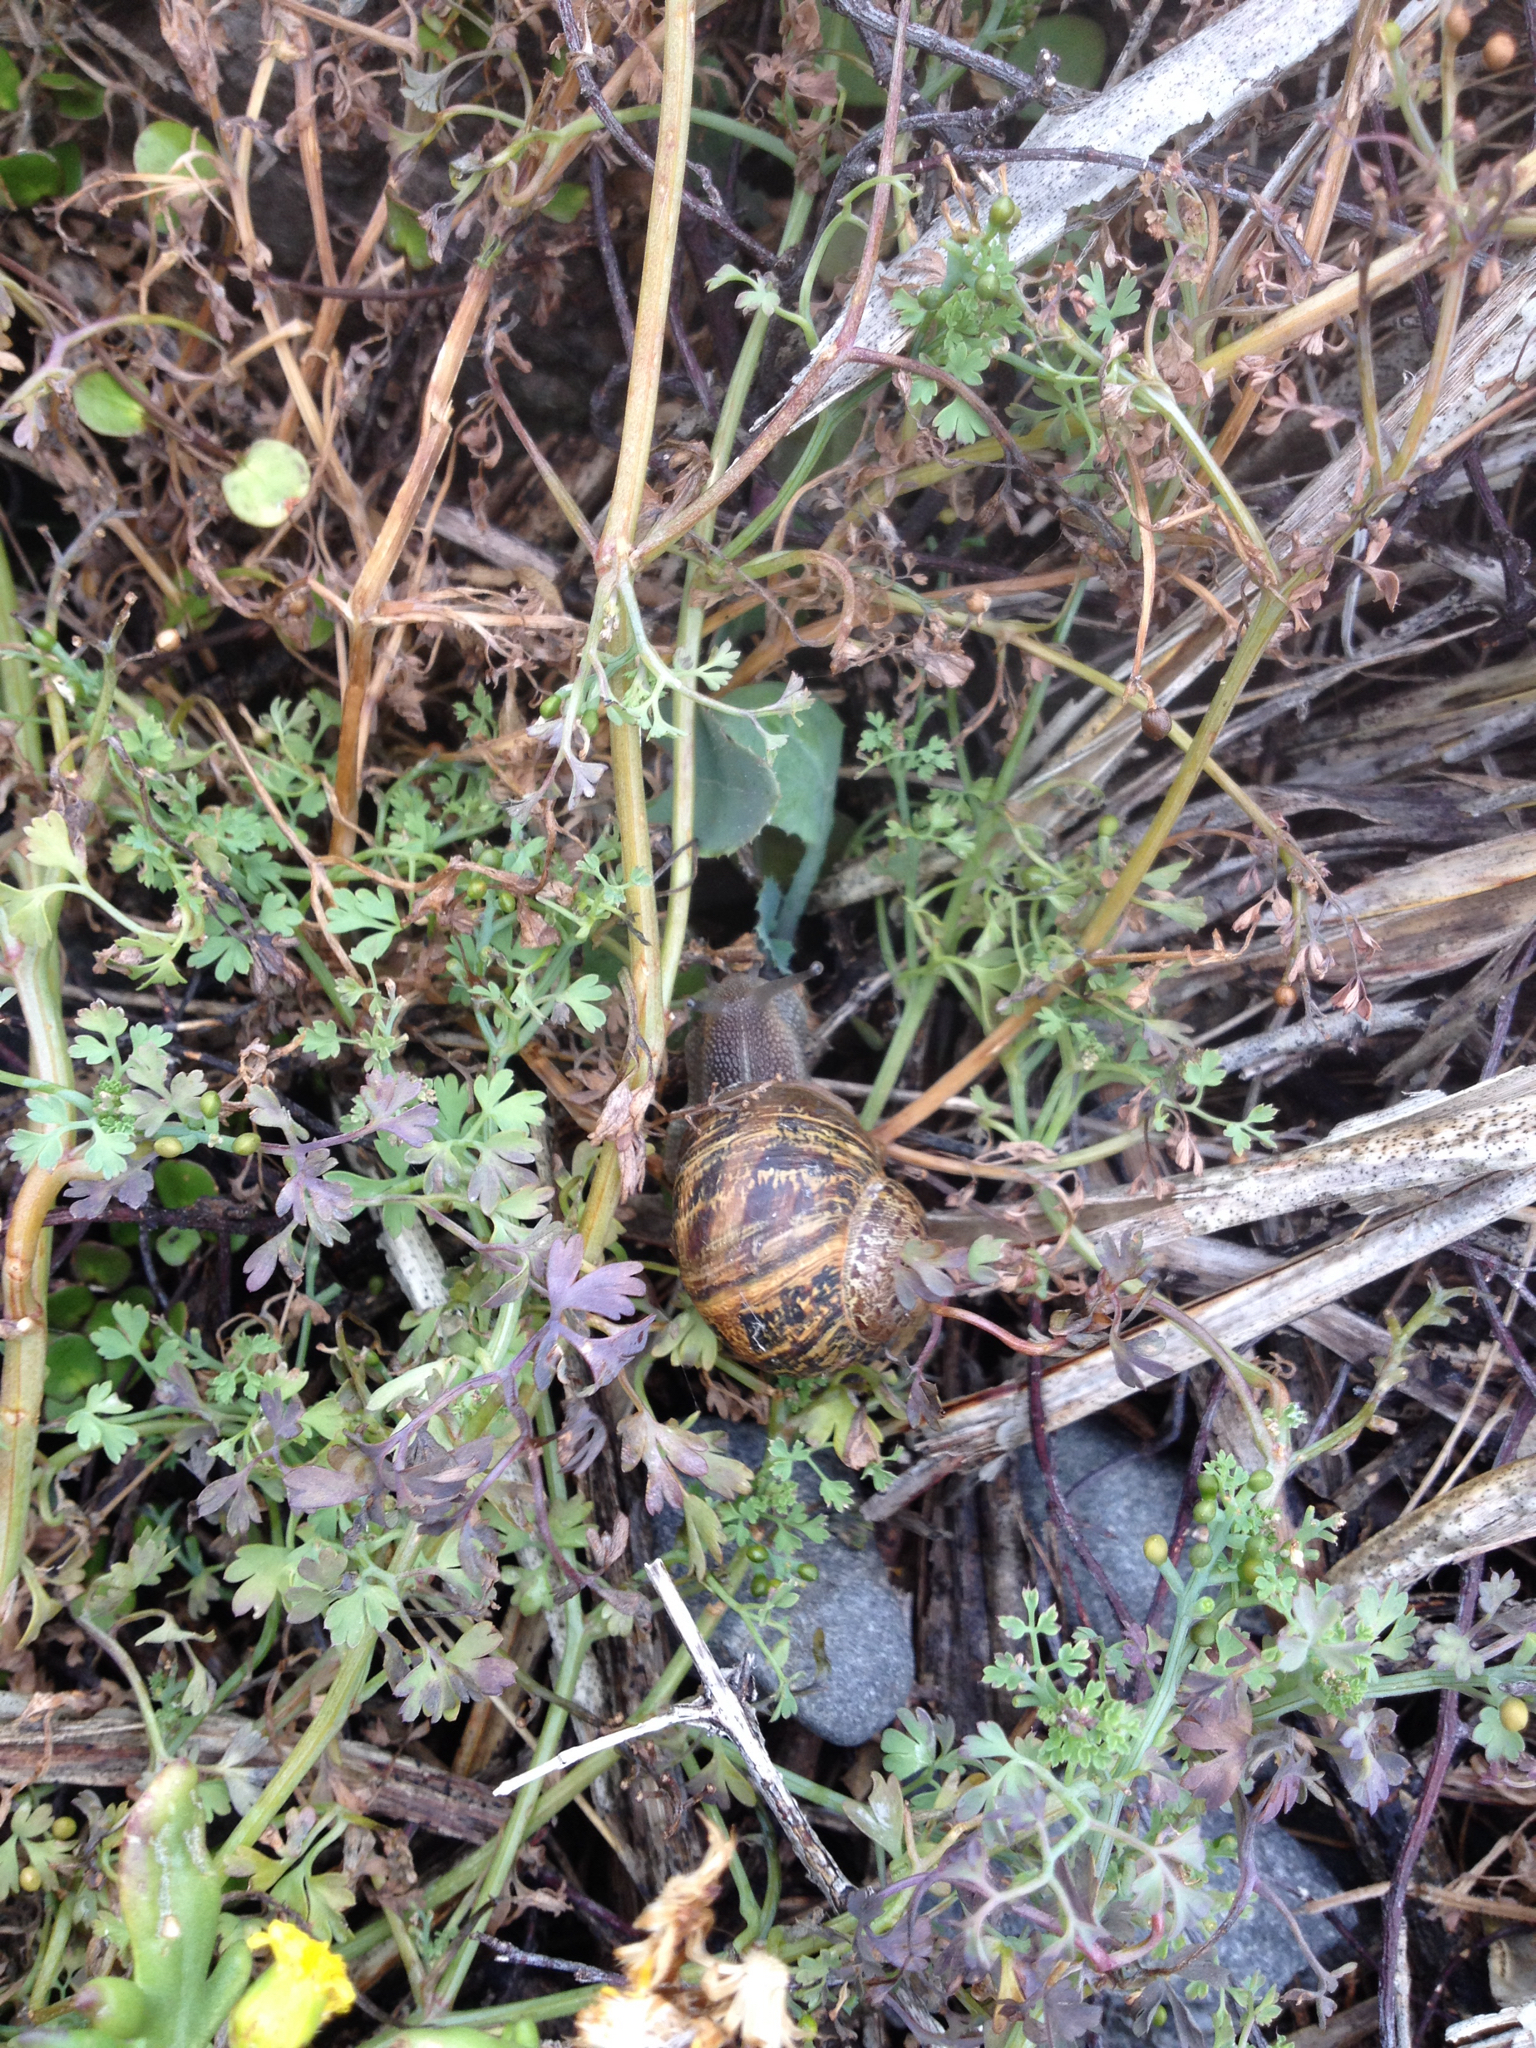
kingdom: Animalia
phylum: Mollusca
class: Gastropoda
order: Stylommatophora
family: Helicidae
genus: Cornu
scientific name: Cornu aspersum
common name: Brown garden snail
